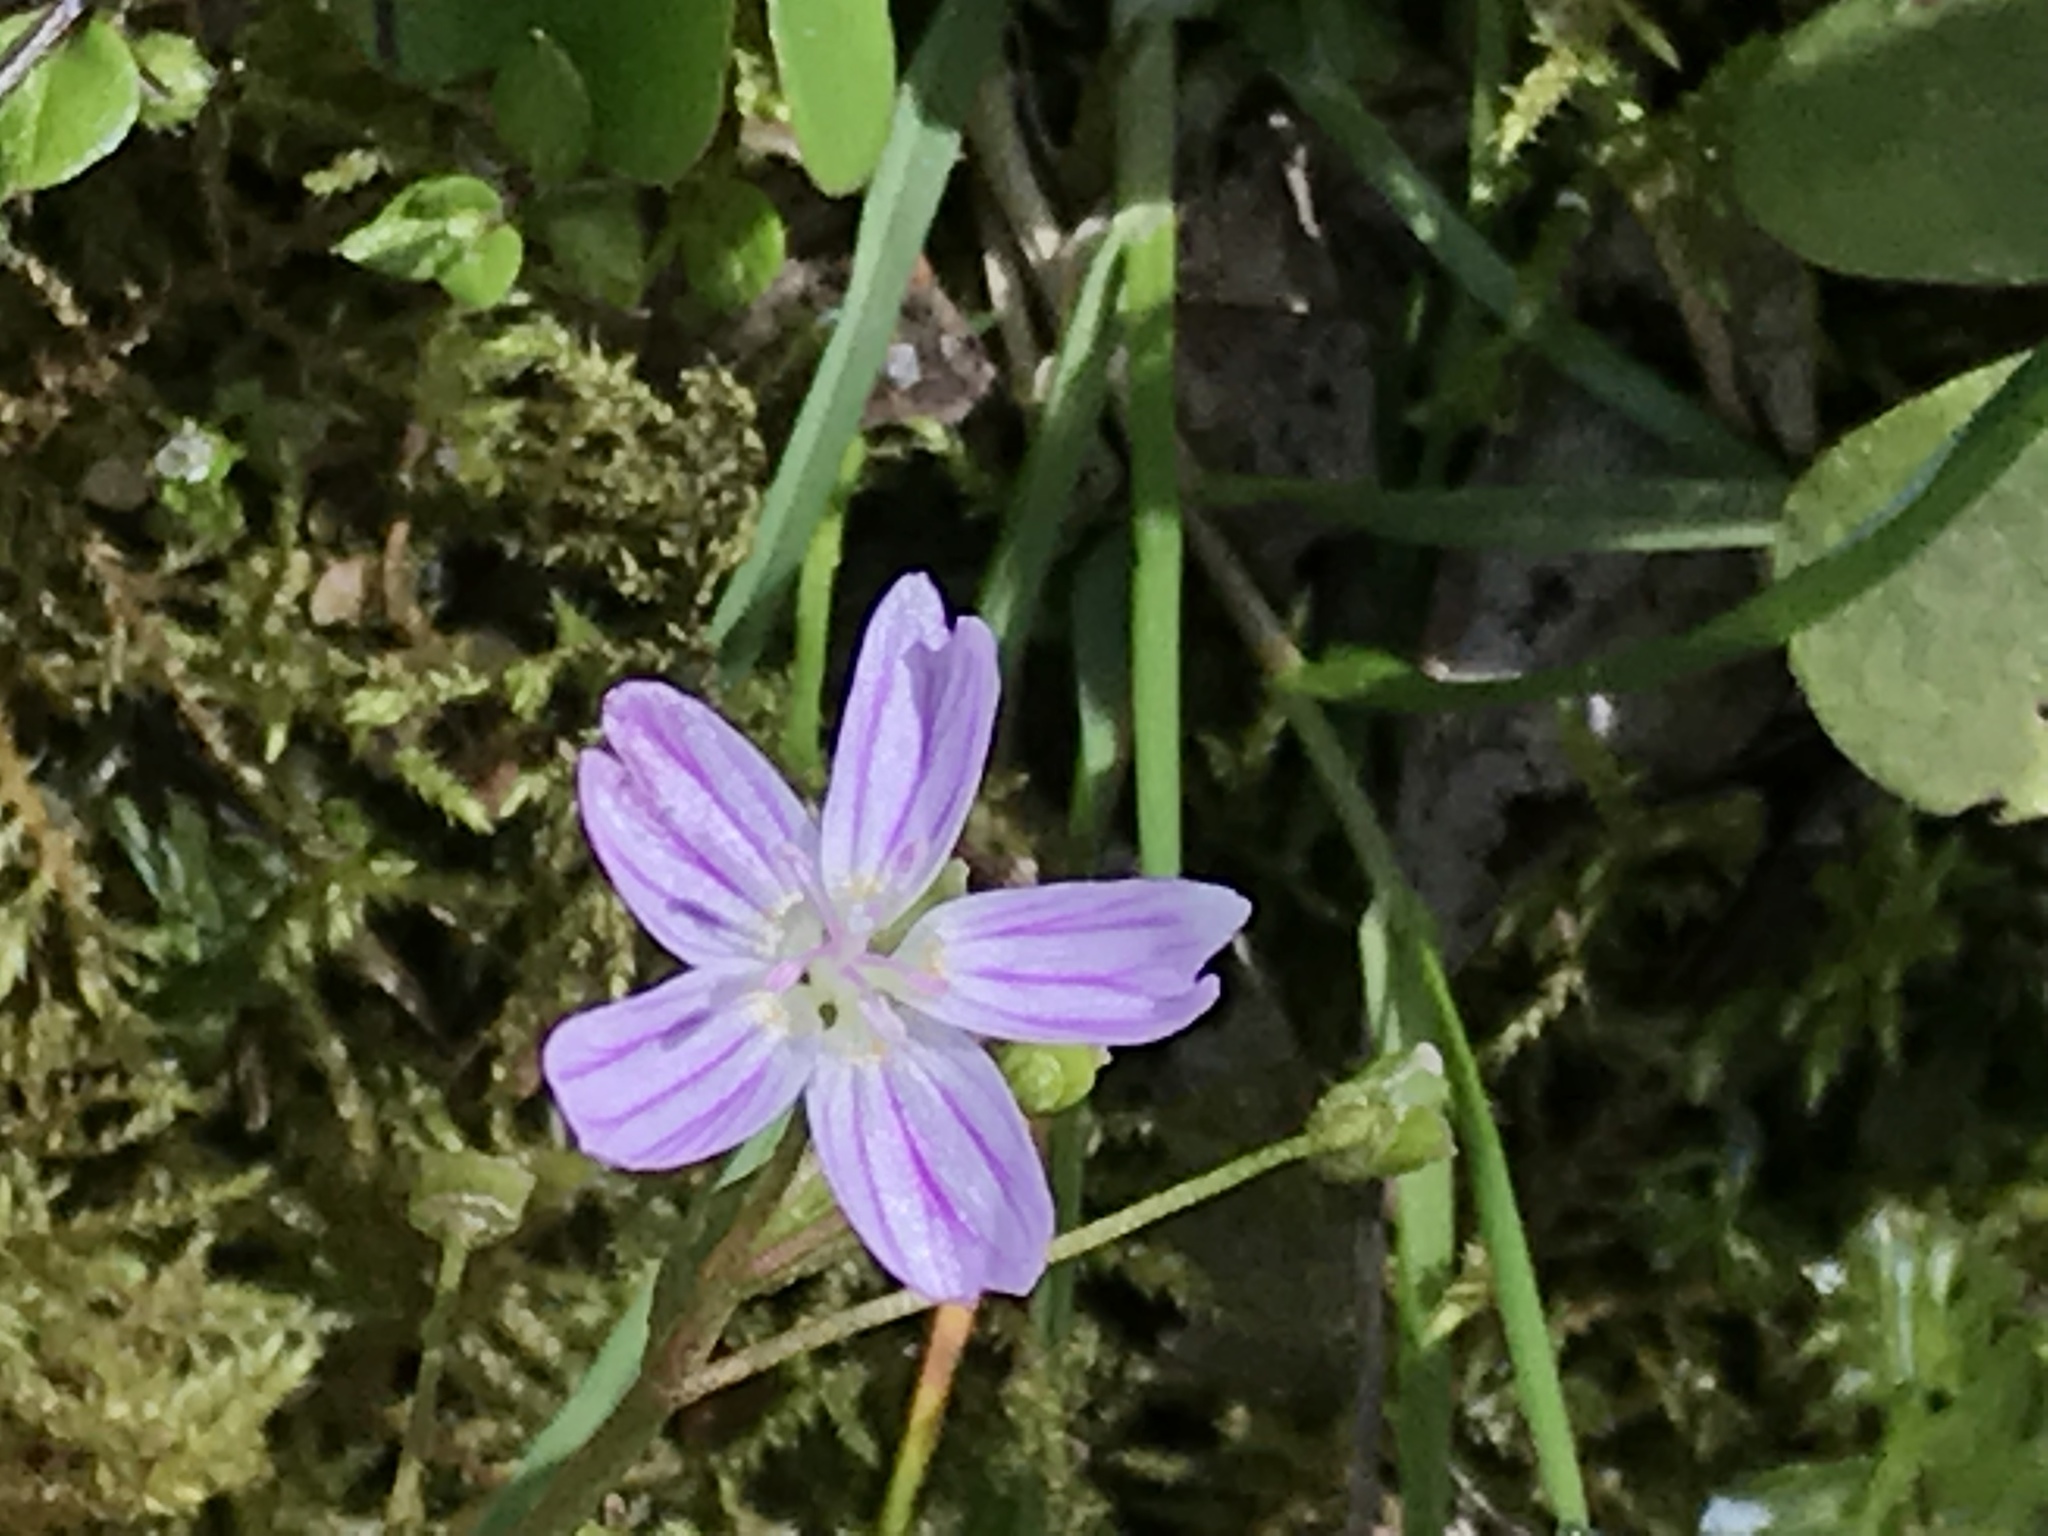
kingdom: Plantae
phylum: Tracheophyta
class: Magnoliopsida
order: Caryophyllales
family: Montiaceae
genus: Claytonia
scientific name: Claytonia sibirica
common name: Pink purslane
